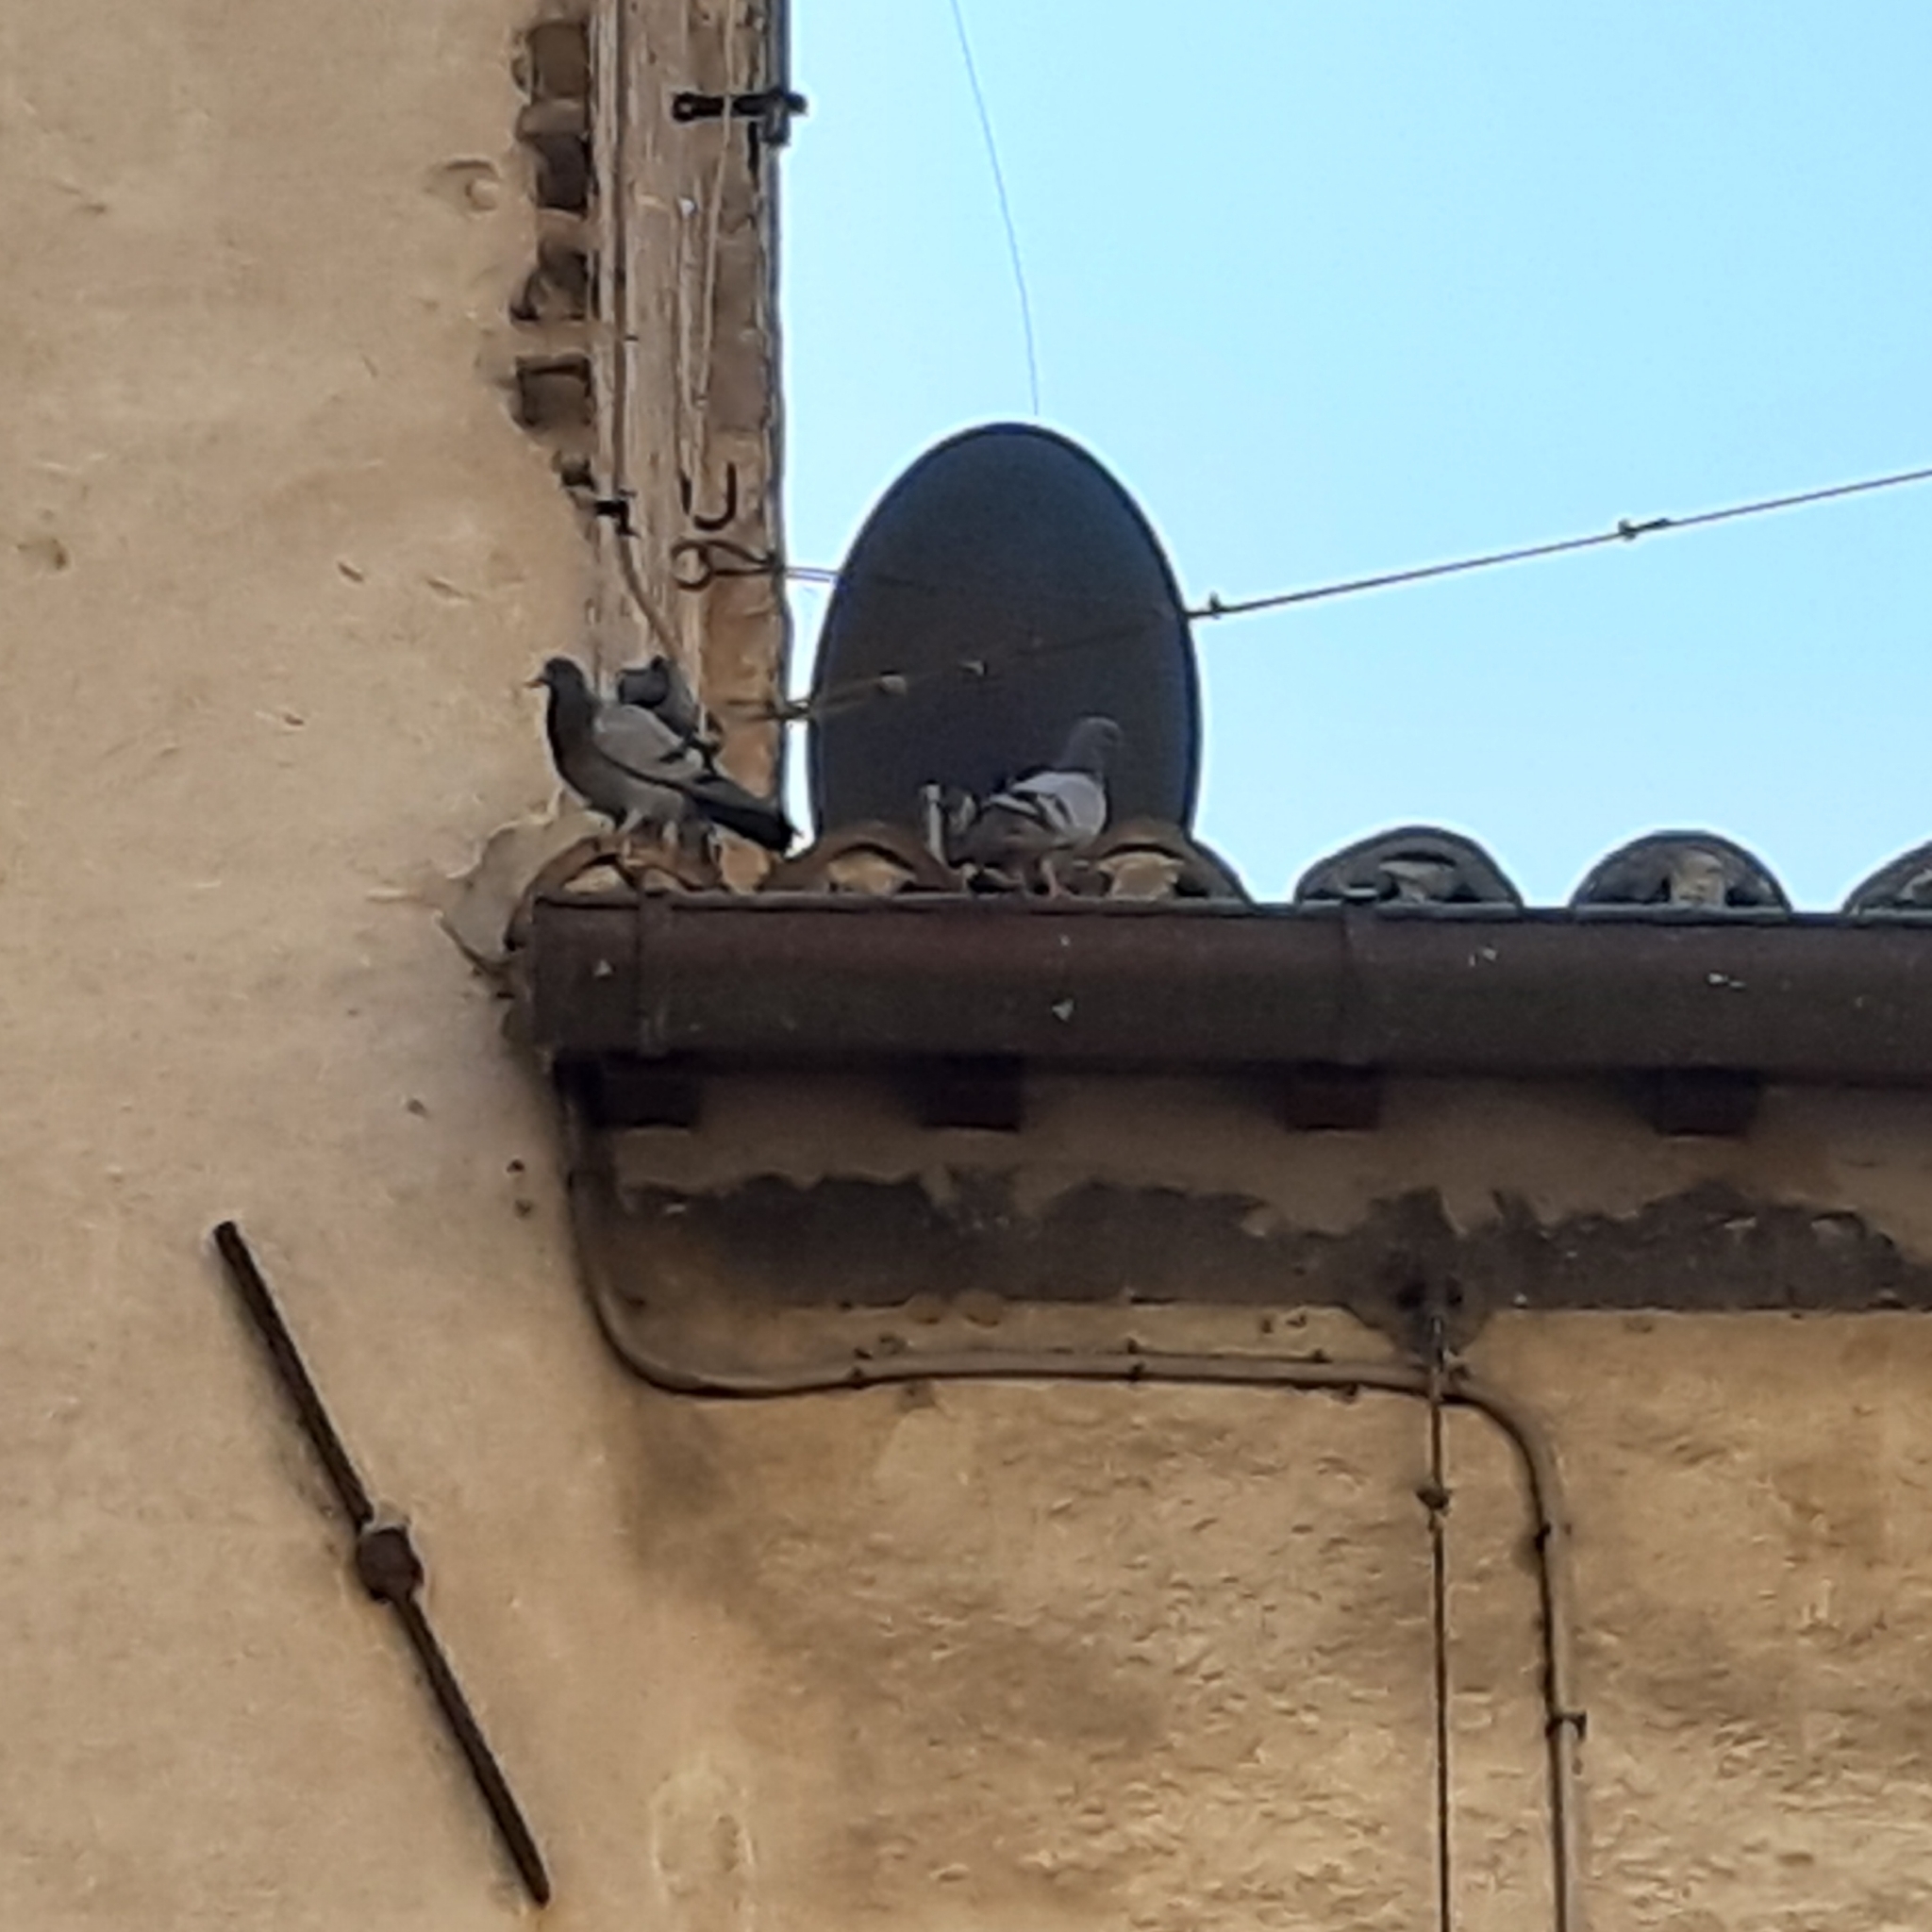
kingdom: Animalia
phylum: Chordata
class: Aves
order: Columbiformes
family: Columbidae
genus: Columba
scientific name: Columba livia
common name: Rock pigeon
